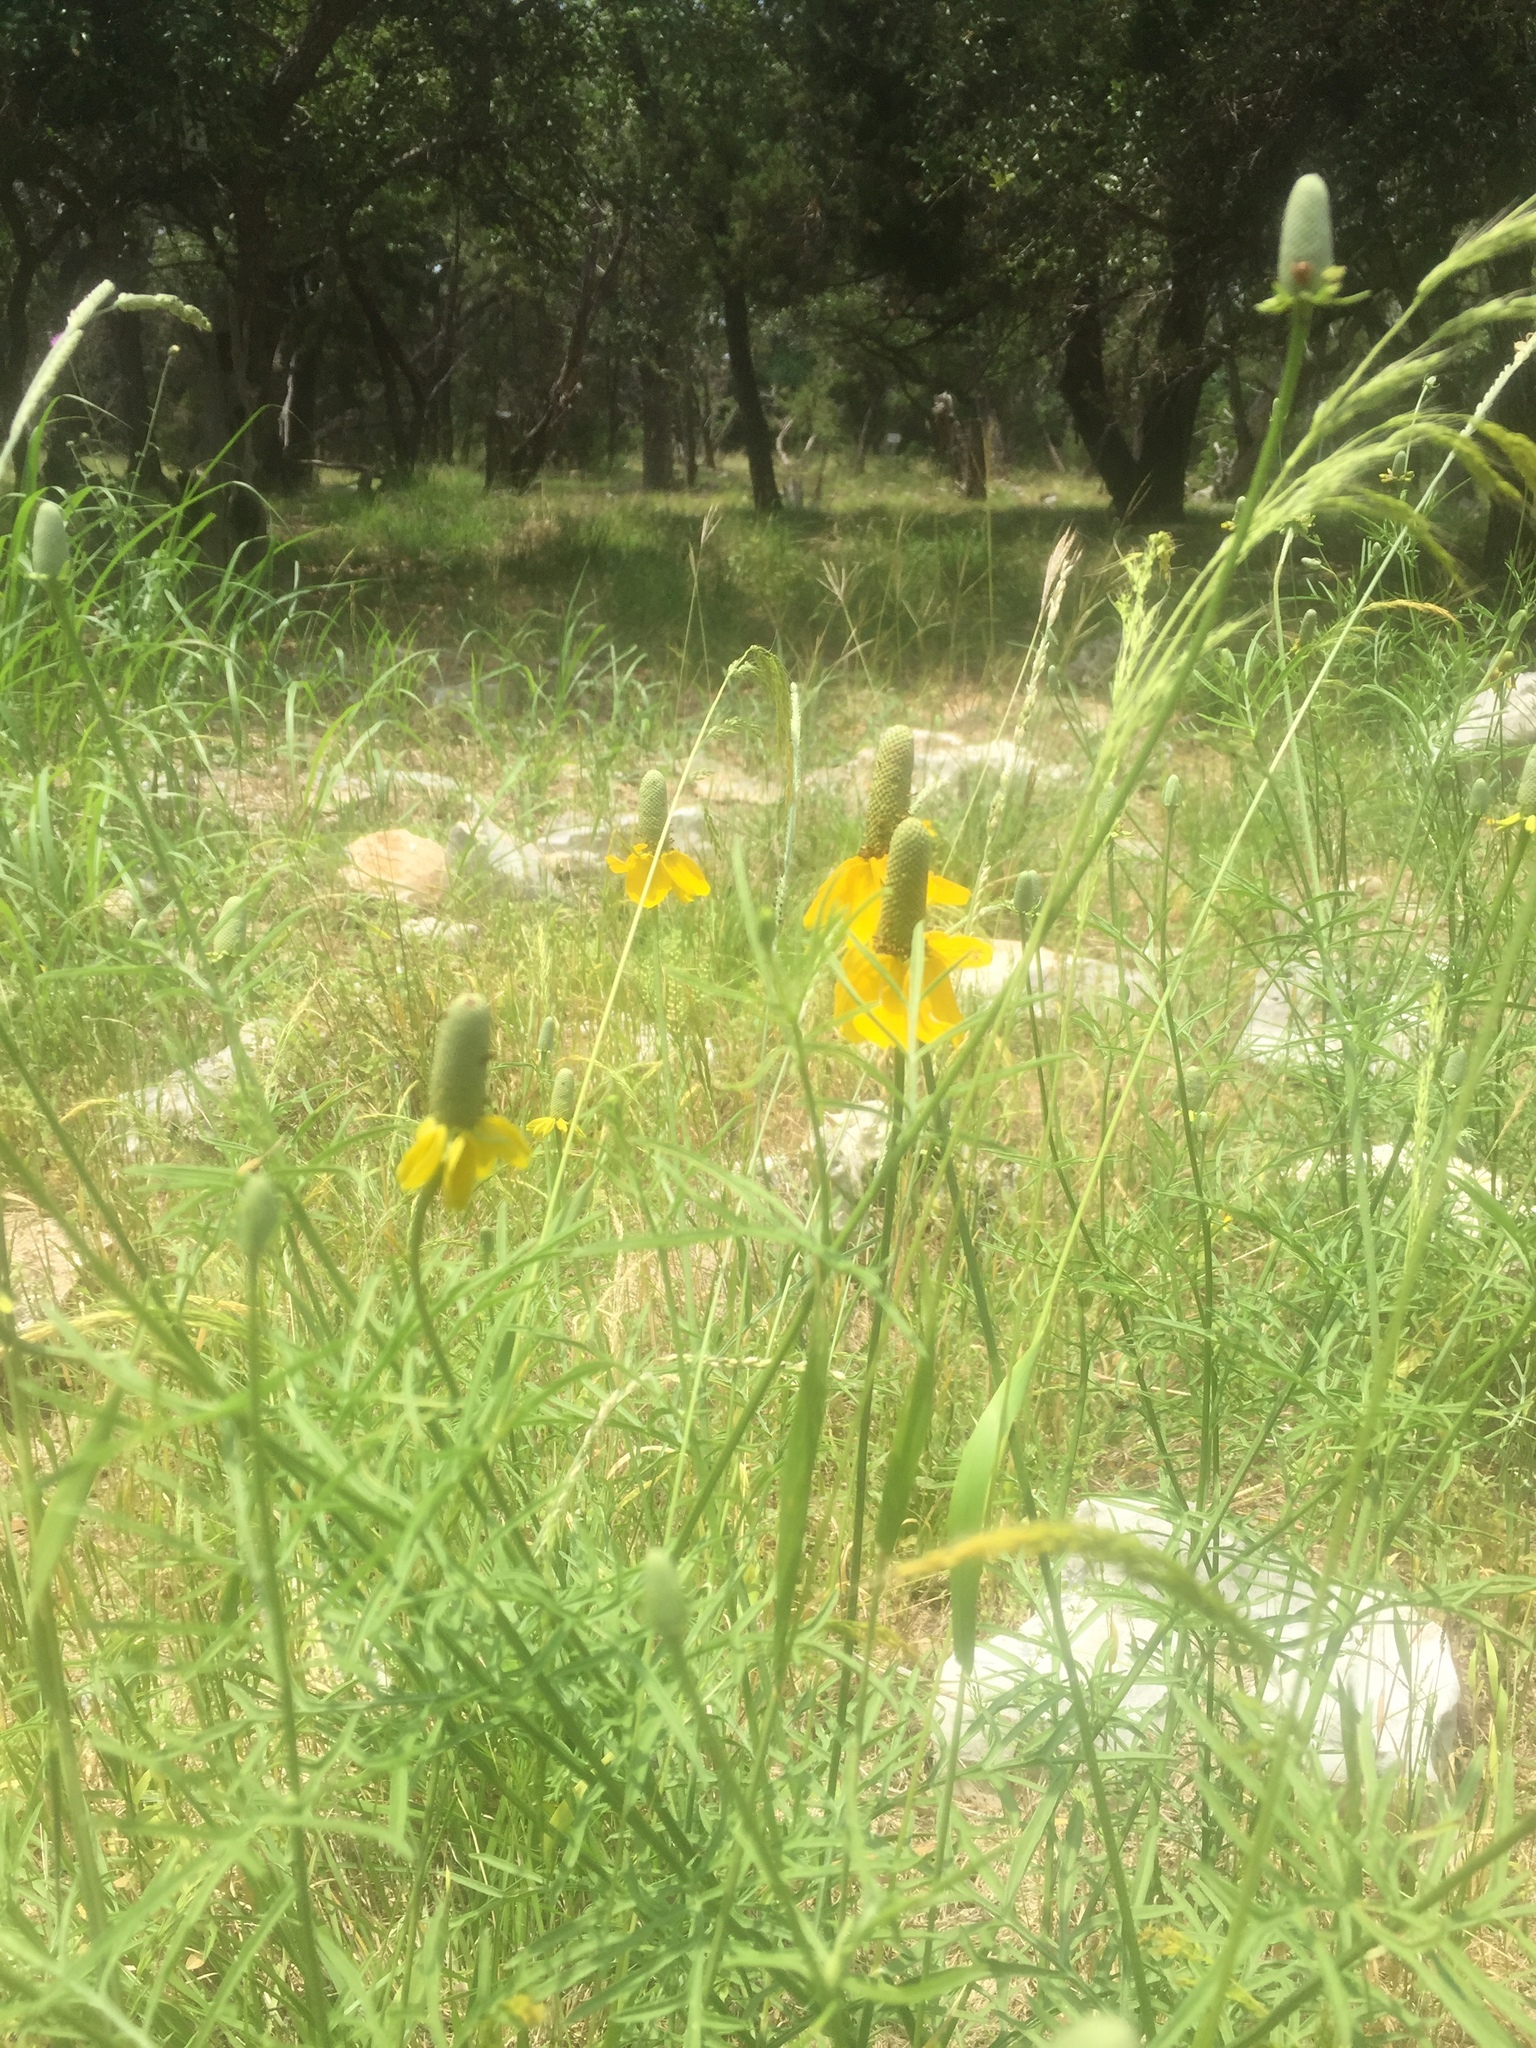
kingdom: Plantae
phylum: Tracheophyta
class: Magnoliopsida
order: Asterales
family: Asteraceae
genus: Ratibida
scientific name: Ratibida columnifera
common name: Prairie coneflower
